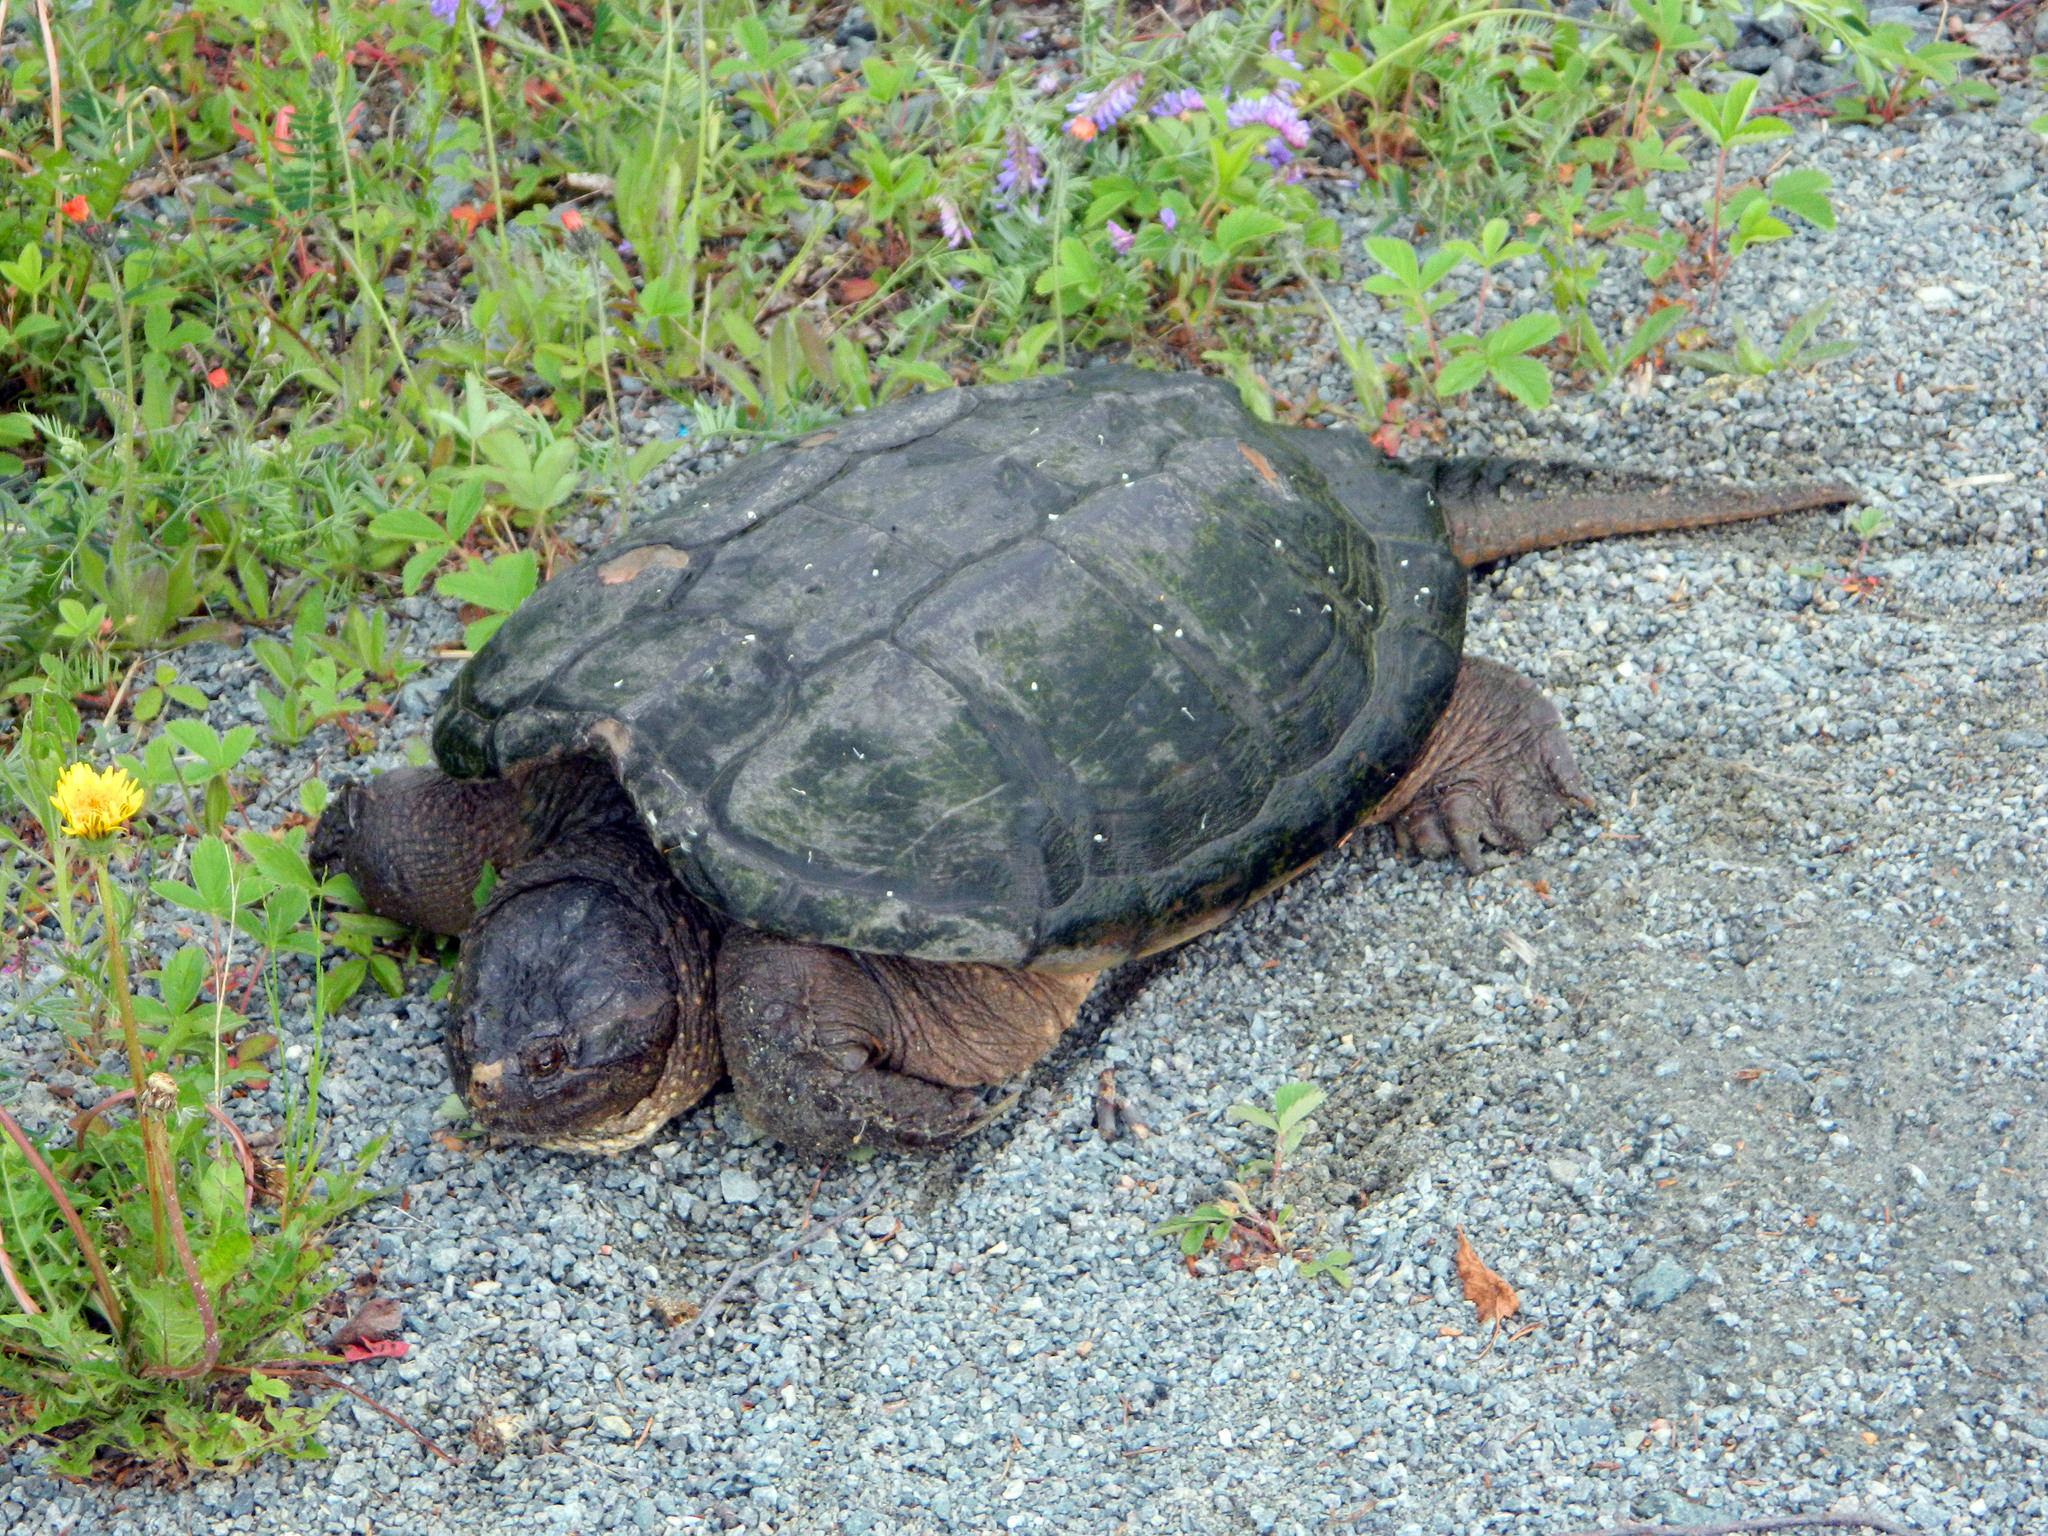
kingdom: Animalia
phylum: Chordata
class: Testudines
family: Chelydridae
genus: Chelydra
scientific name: Chelydra serpentina
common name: Common snapping turtle
